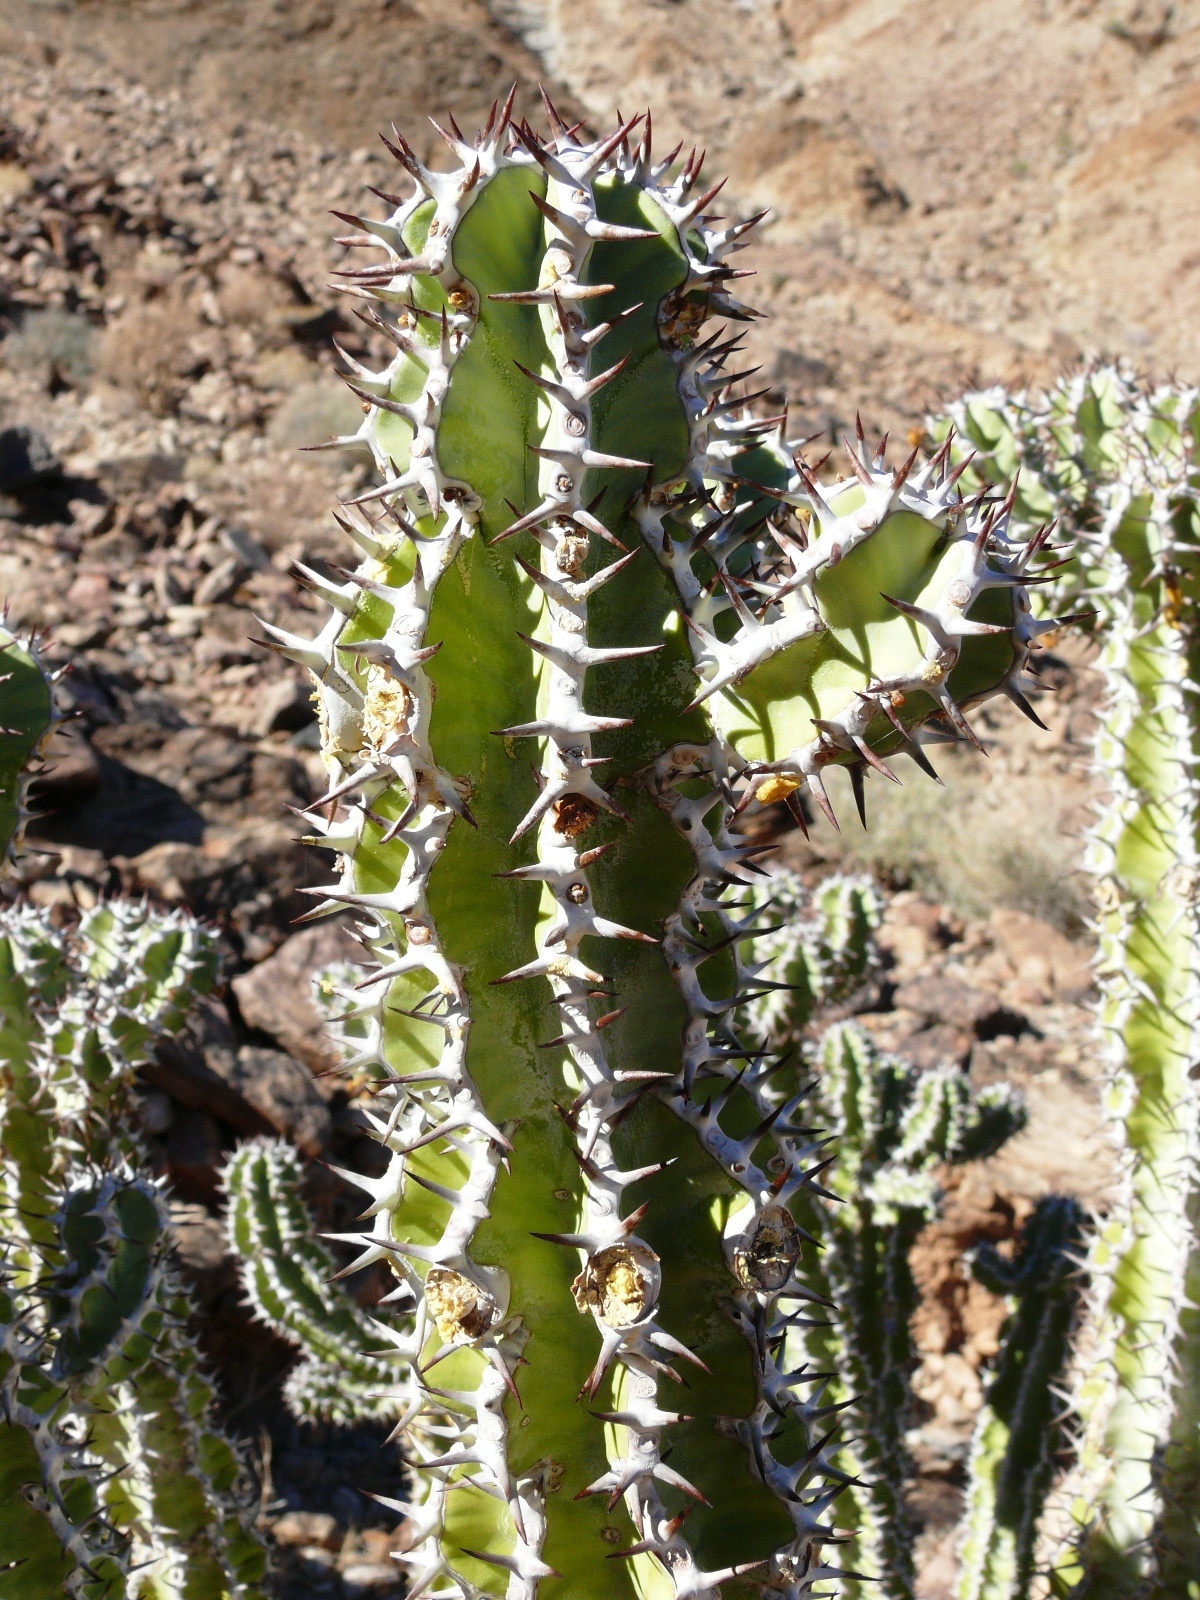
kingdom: Plantae
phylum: Tracheophyta
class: Magnoliopsida
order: Malpighiales
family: Euphorbiaceae
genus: Euphorbia
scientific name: Euphorbia virosa
